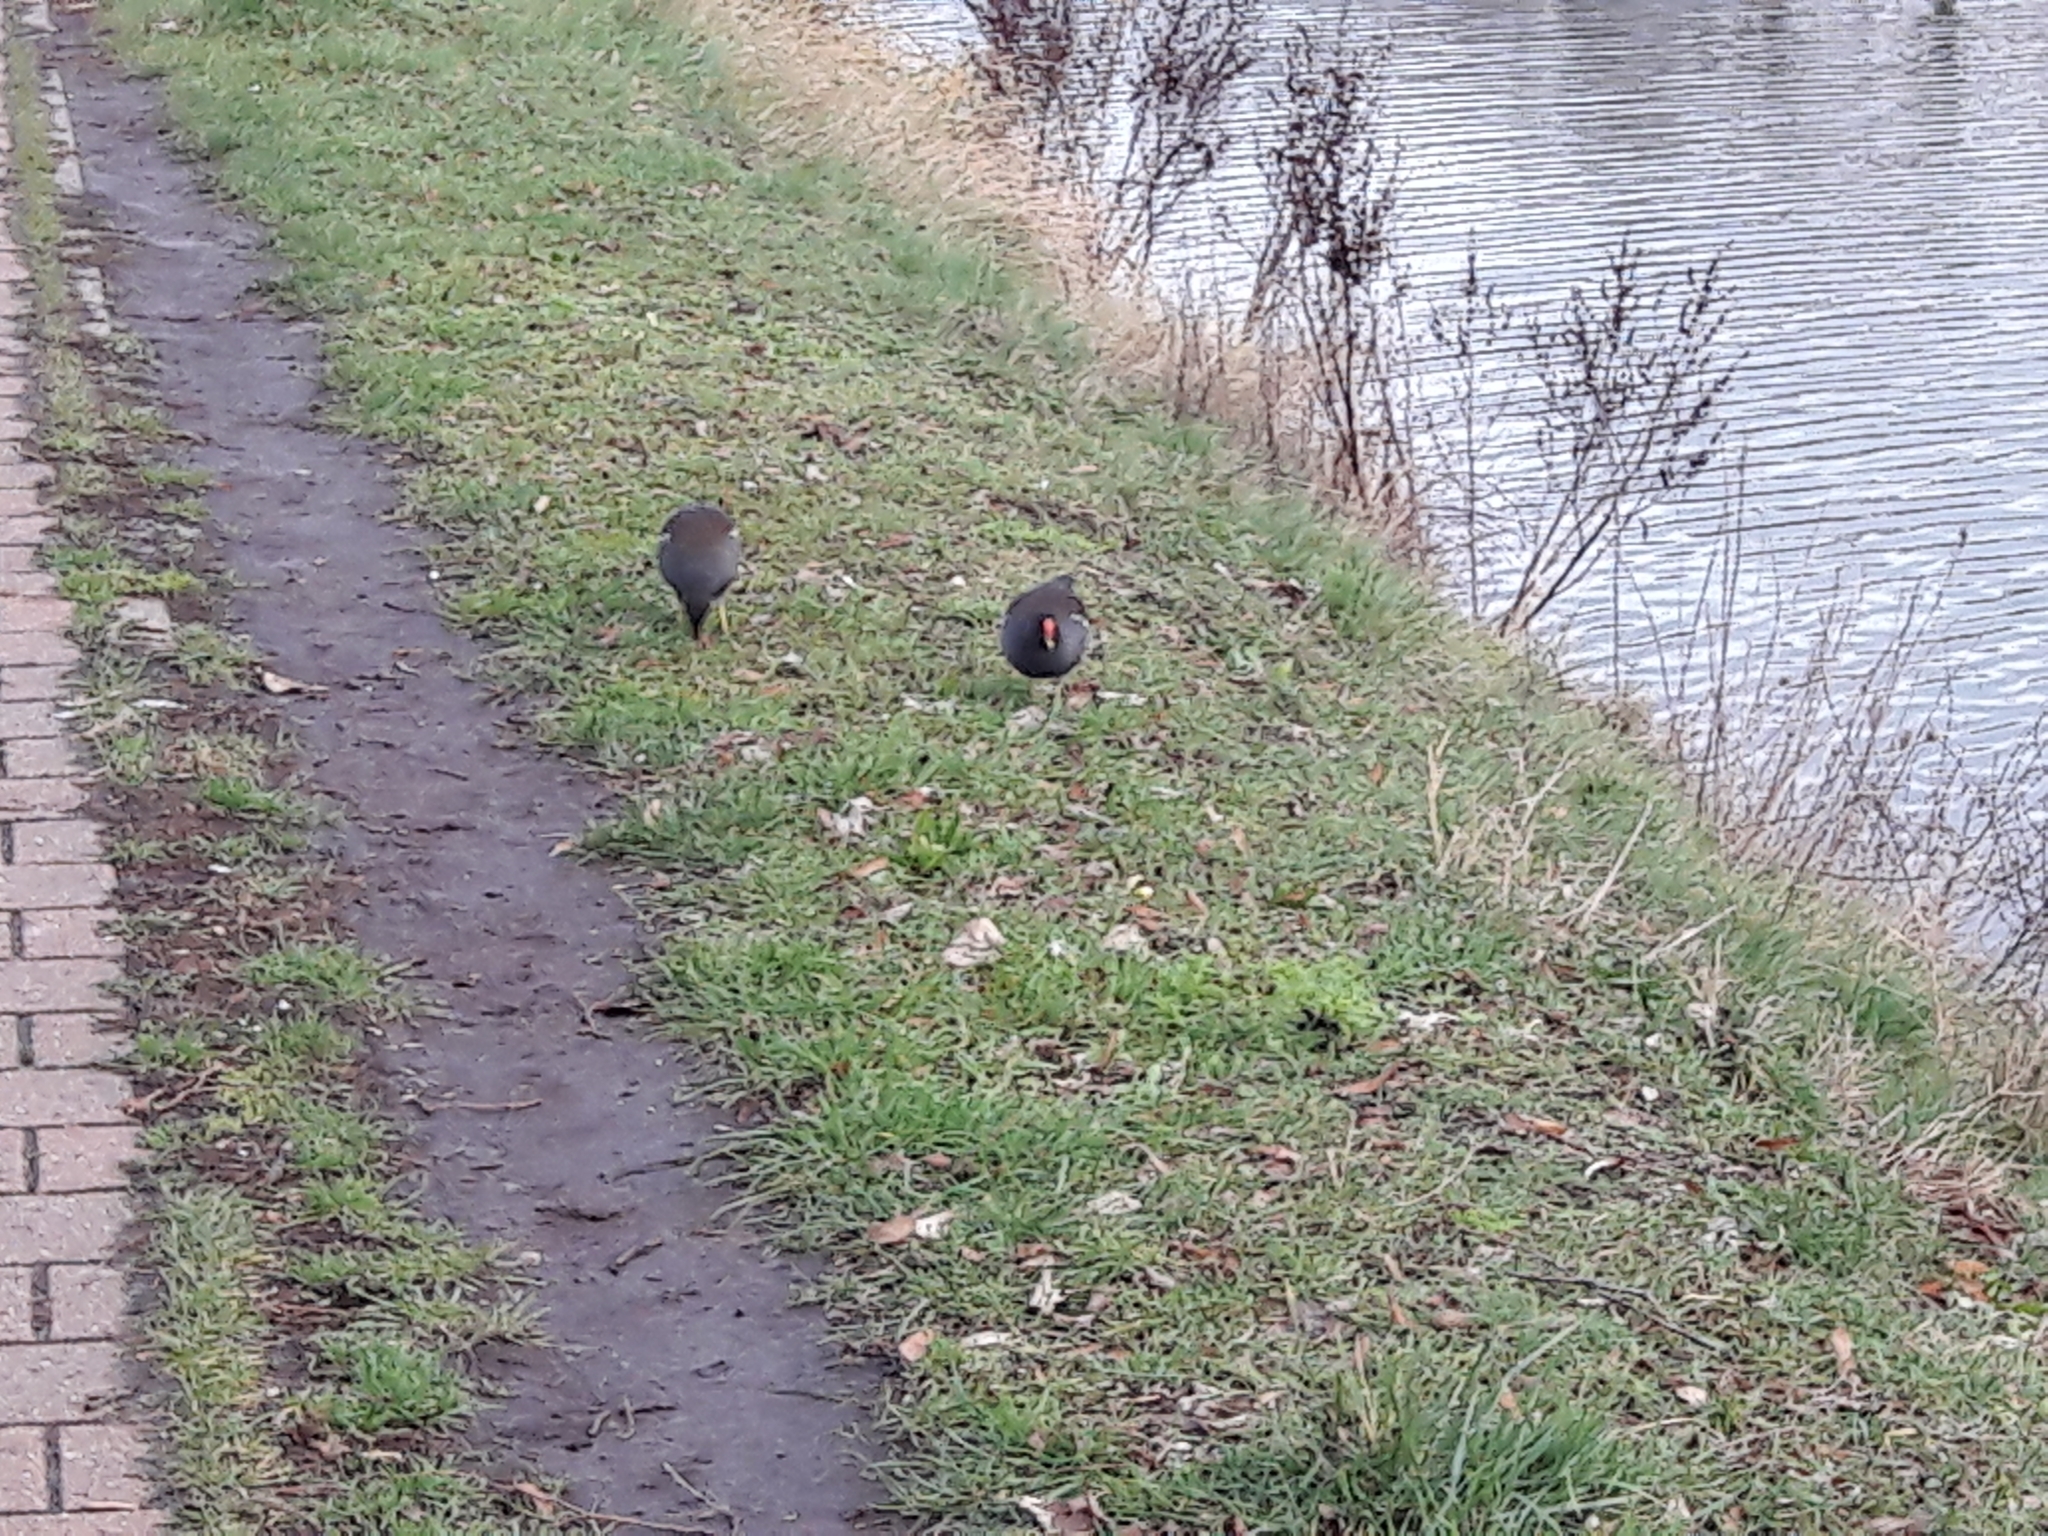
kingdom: Animalia
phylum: Chordata
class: Aves
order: Gruiformes
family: Rallidae
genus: Gallinula
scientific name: Gallinula chloropus
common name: Common moorhen
